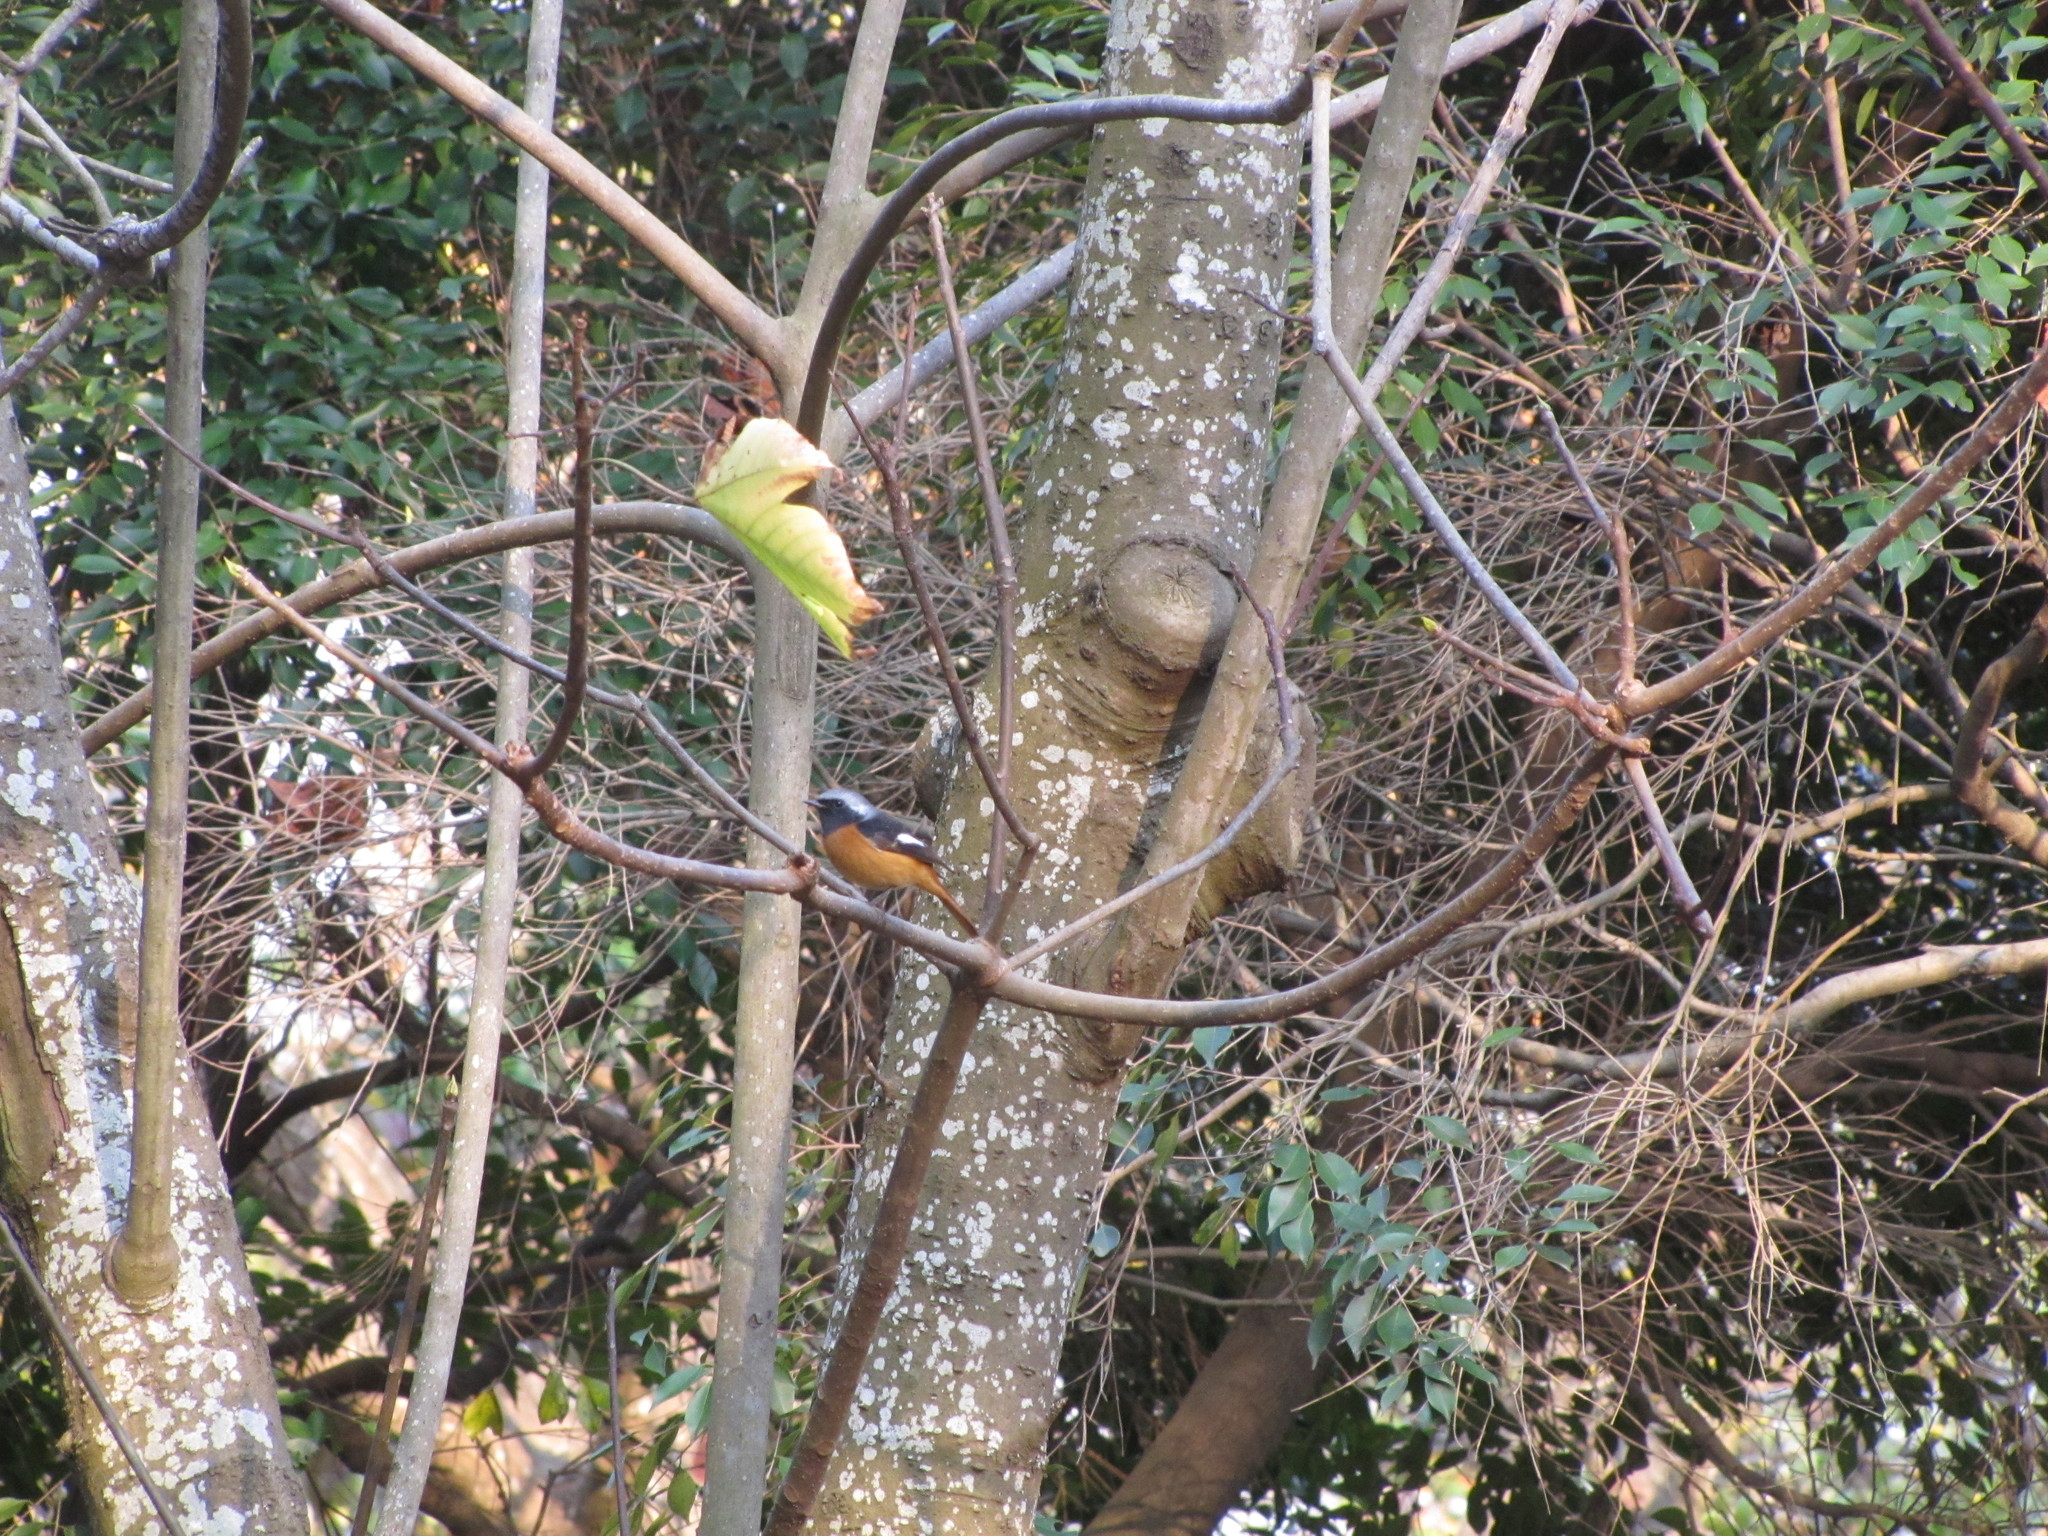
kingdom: Animalia
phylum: Chordata
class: Aves
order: Passeriformes
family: Muscicapidae
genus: Phoenicurus
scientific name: Phoenicurus auroreus
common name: Daurian redstart
